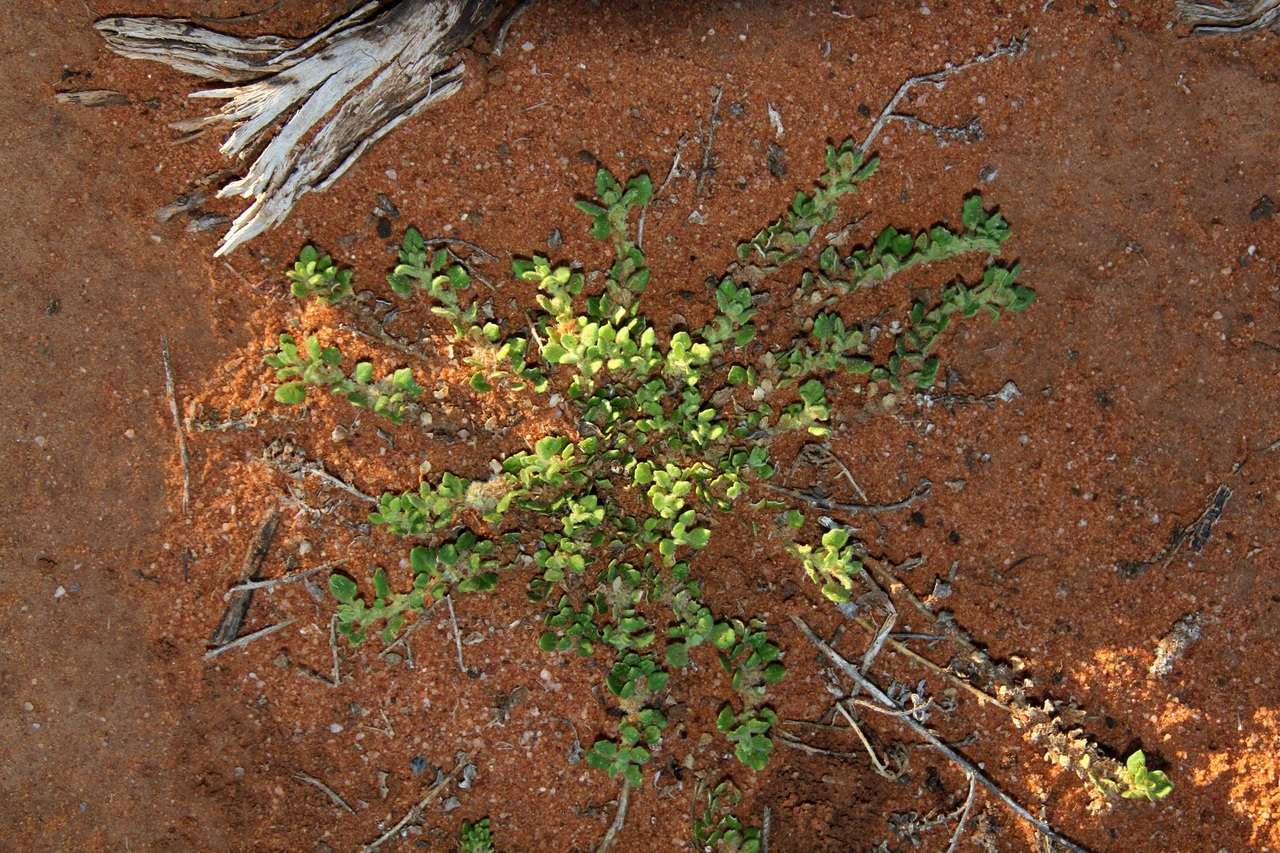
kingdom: Plantae
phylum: Tracheophyta
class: Magnoliopsida
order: Caryophyllales
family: Amaranthaceae
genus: Dysphania
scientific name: Dysphania cristata
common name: Crested goosefoot
